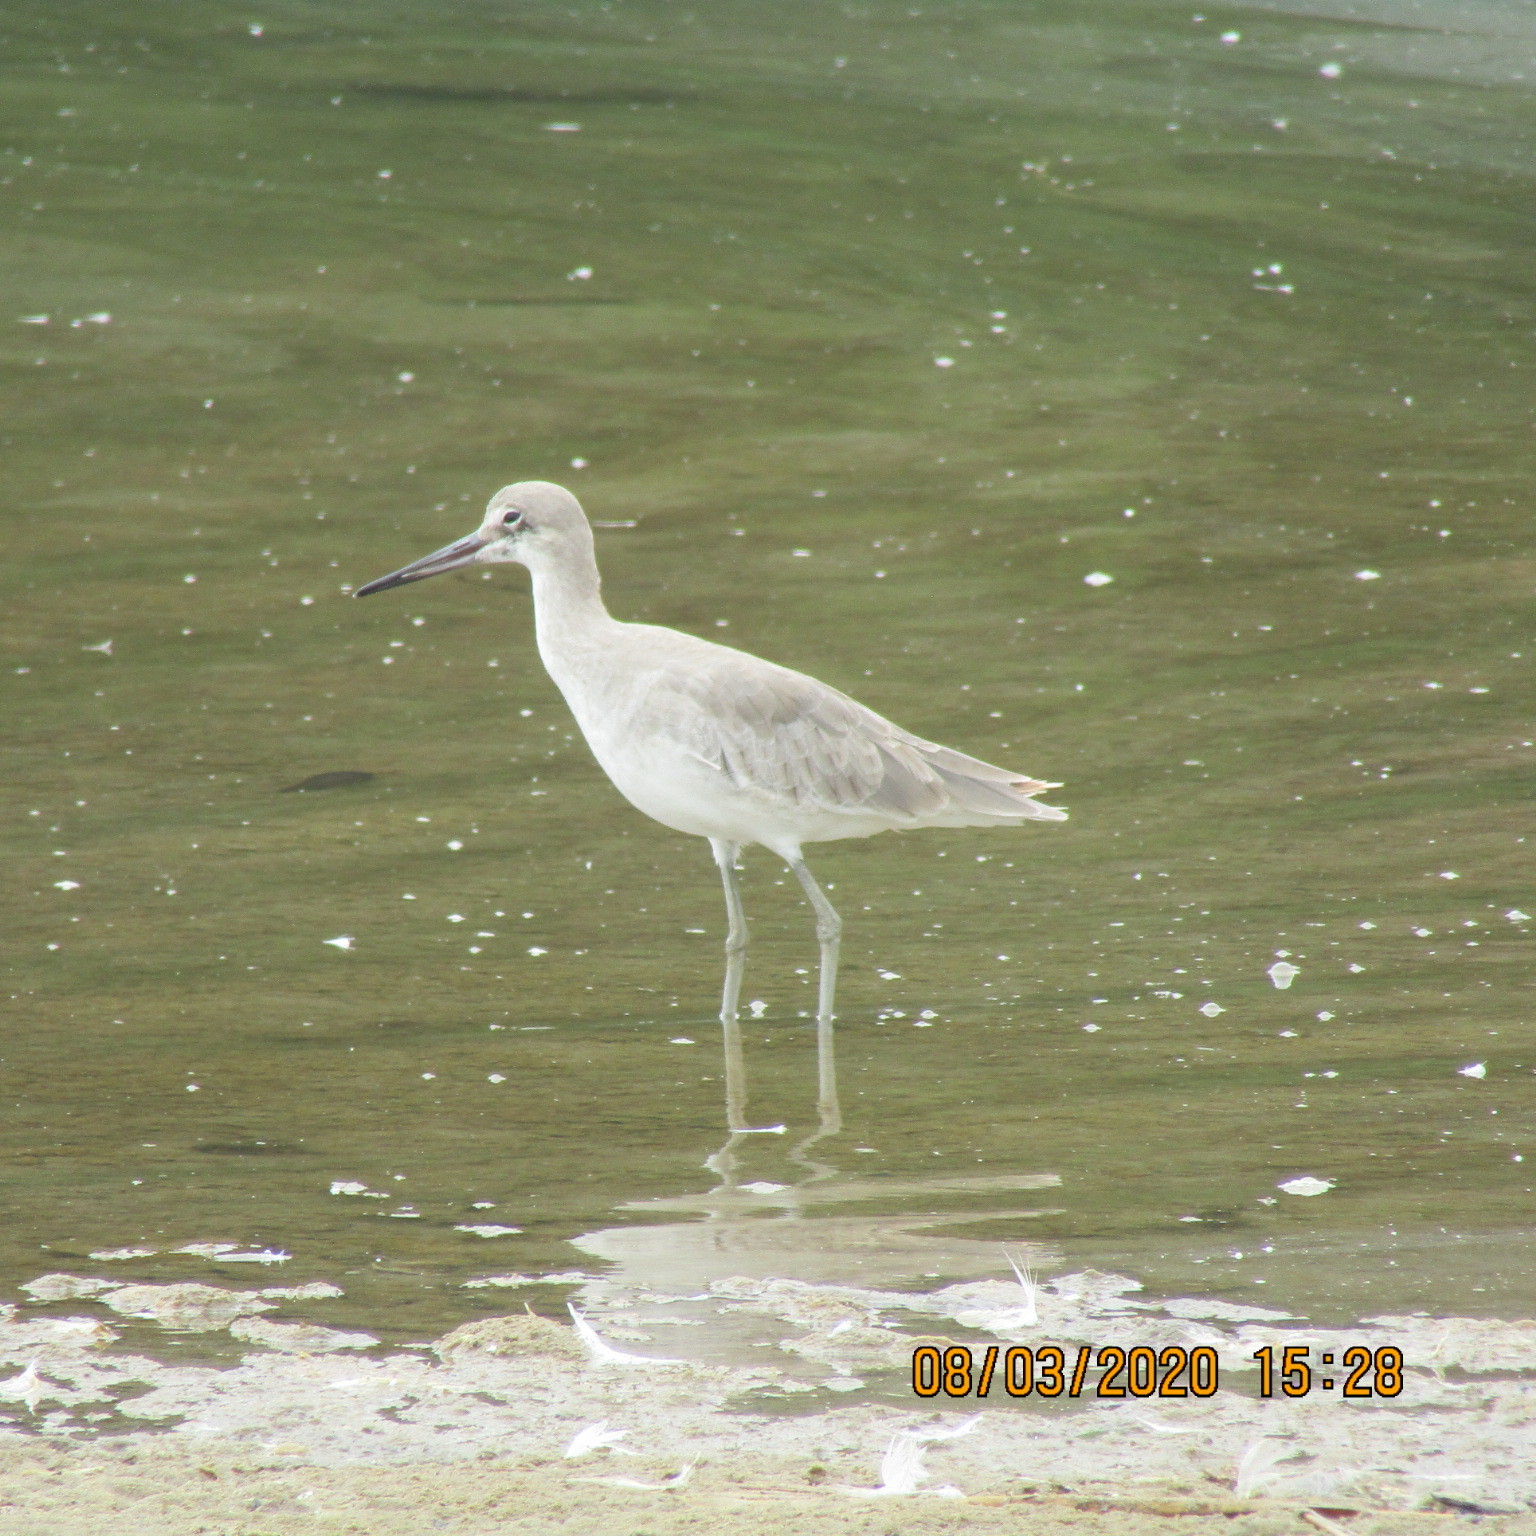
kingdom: Animalia
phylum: Chordata
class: Aves
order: Charadriiformes
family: Scolopacidae
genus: Tringa
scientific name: Tringa semipalmata
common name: Willet
